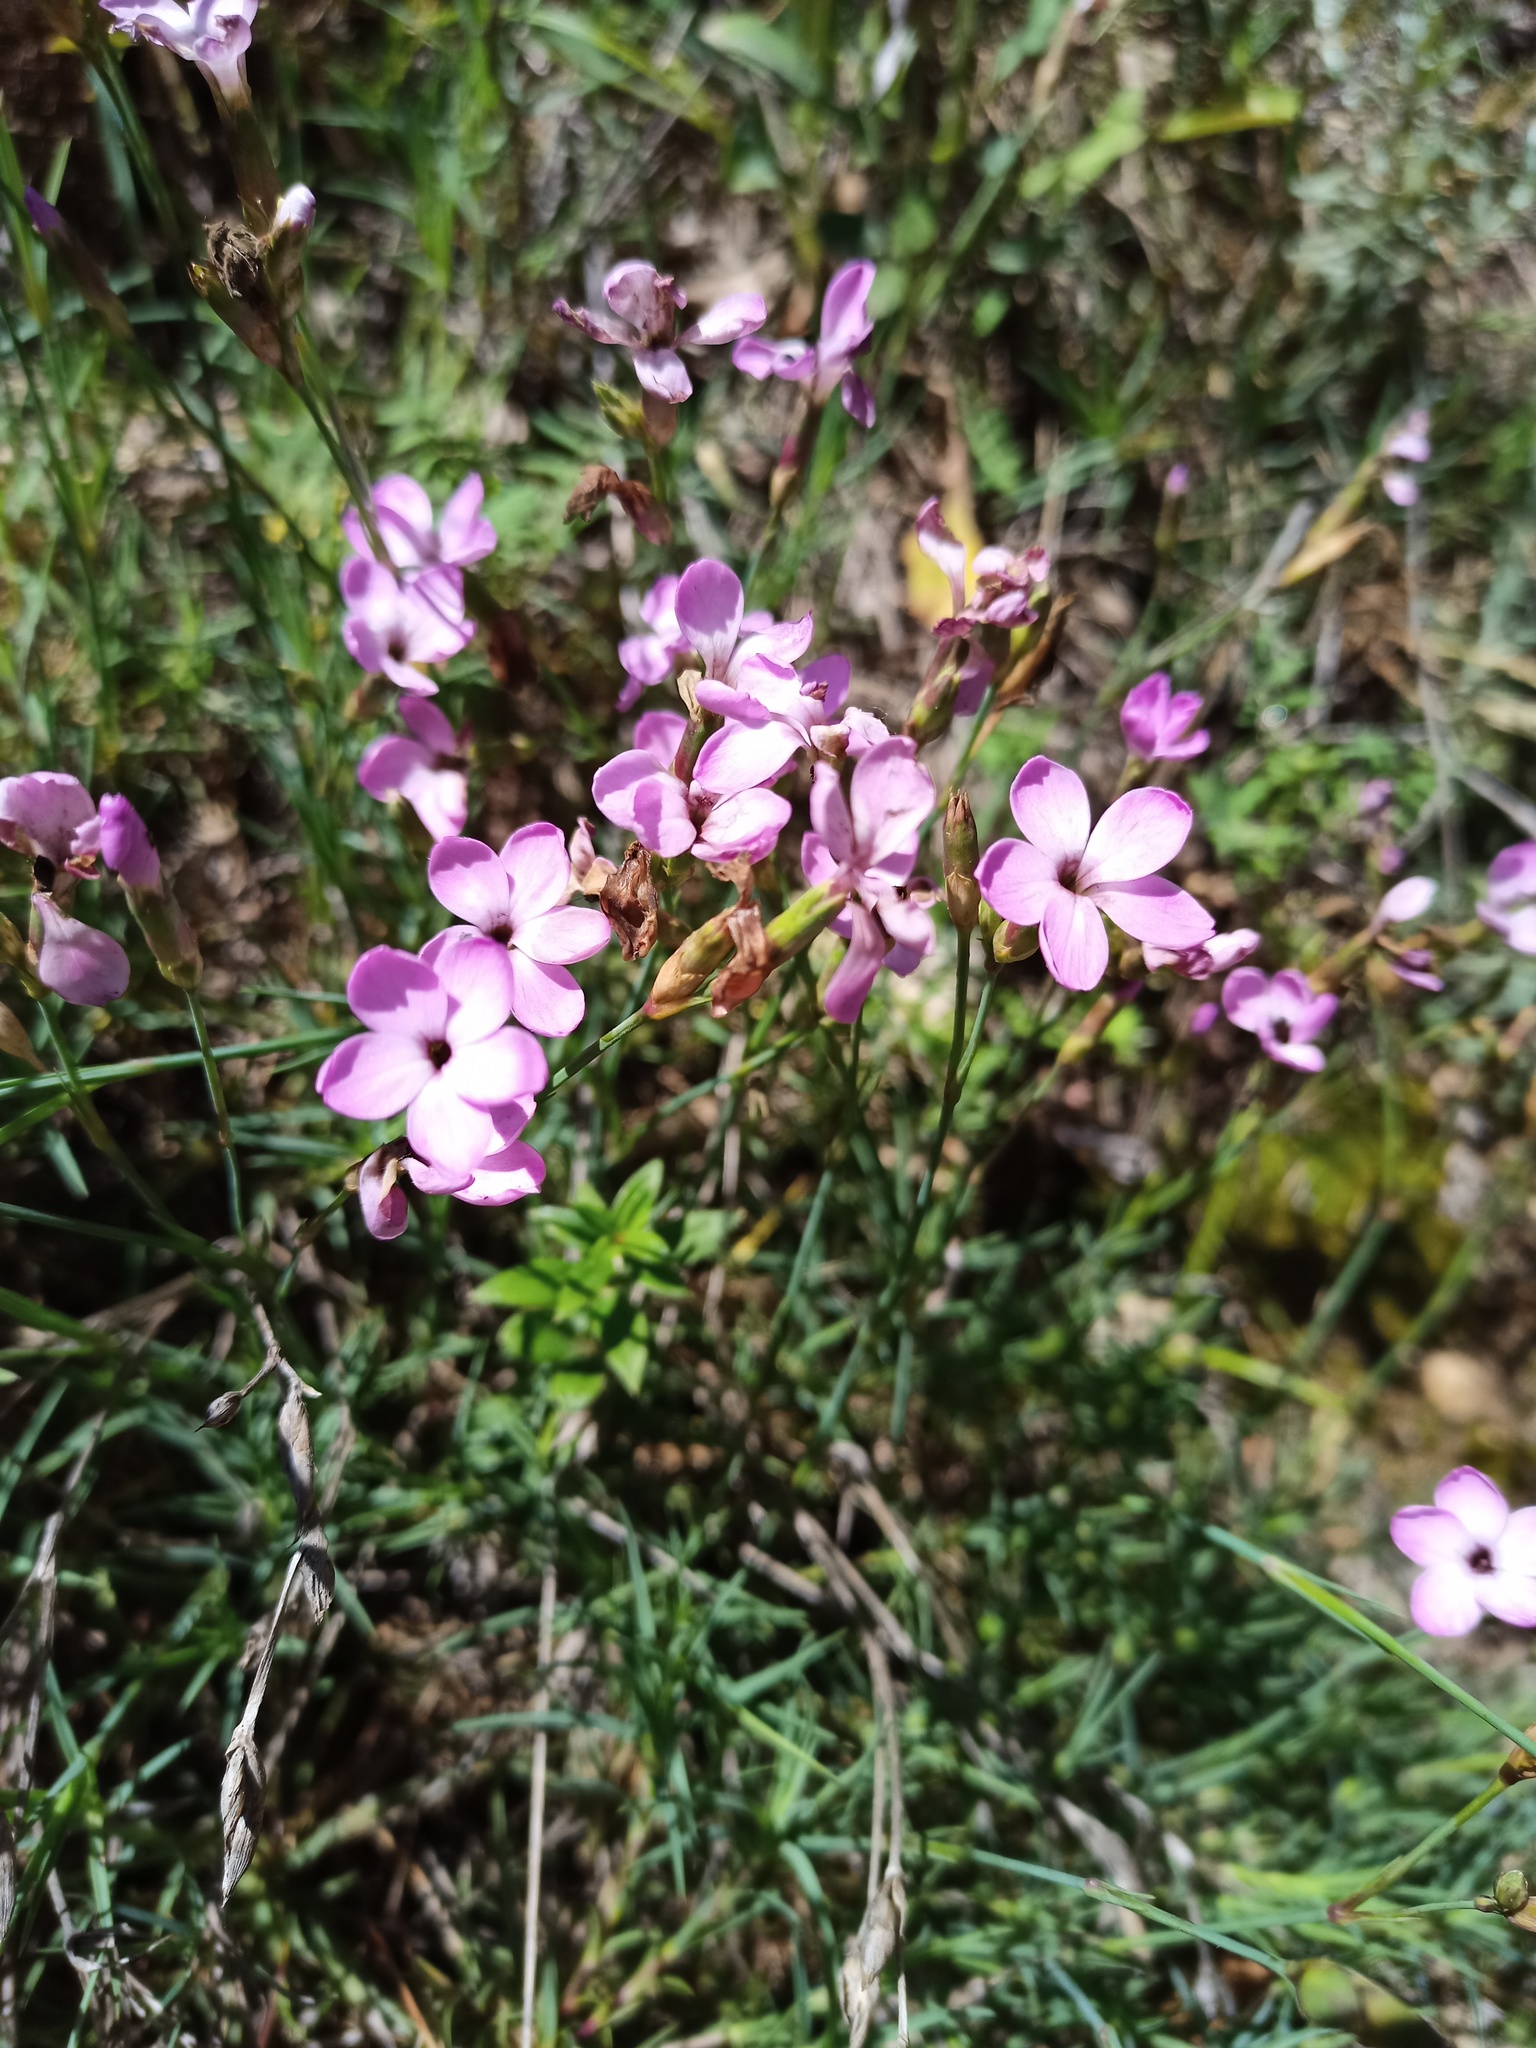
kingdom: Plantae
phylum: Tracheophyta
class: Magnoliopsida
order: Caryophyllales
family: Caryophyllaceae
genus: Dianthus
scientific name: Dianthus pungens
